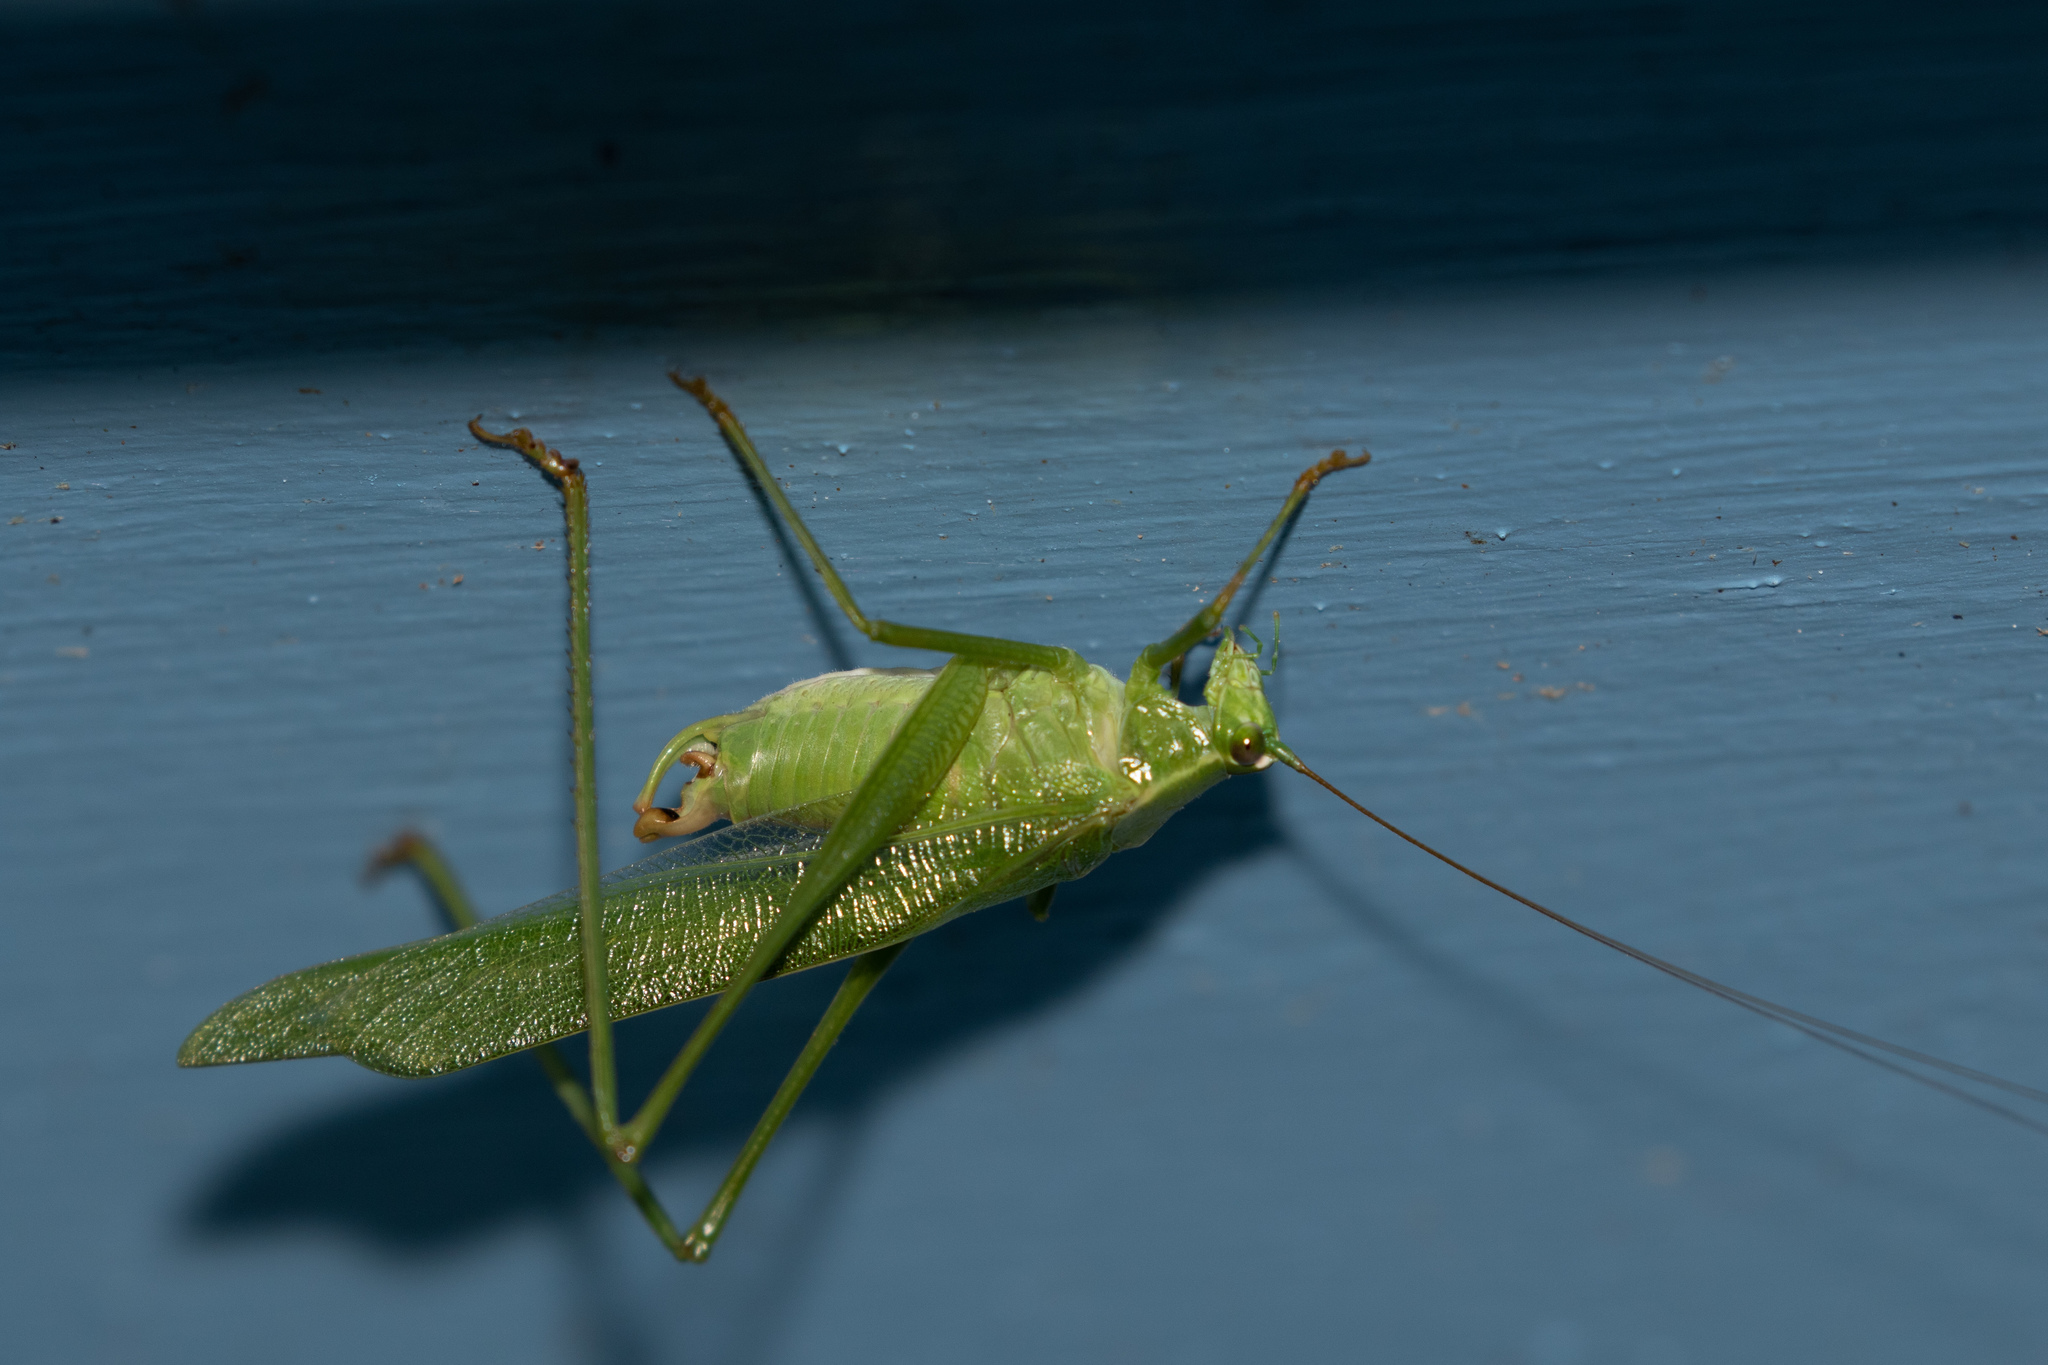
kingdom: Animalia
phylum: Arthropoda
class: Insecta
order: Orthoptera
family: Tettigoniidae
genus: Scudderia
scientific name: Scudderia furcata
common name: Fork-tailed bush katydid
